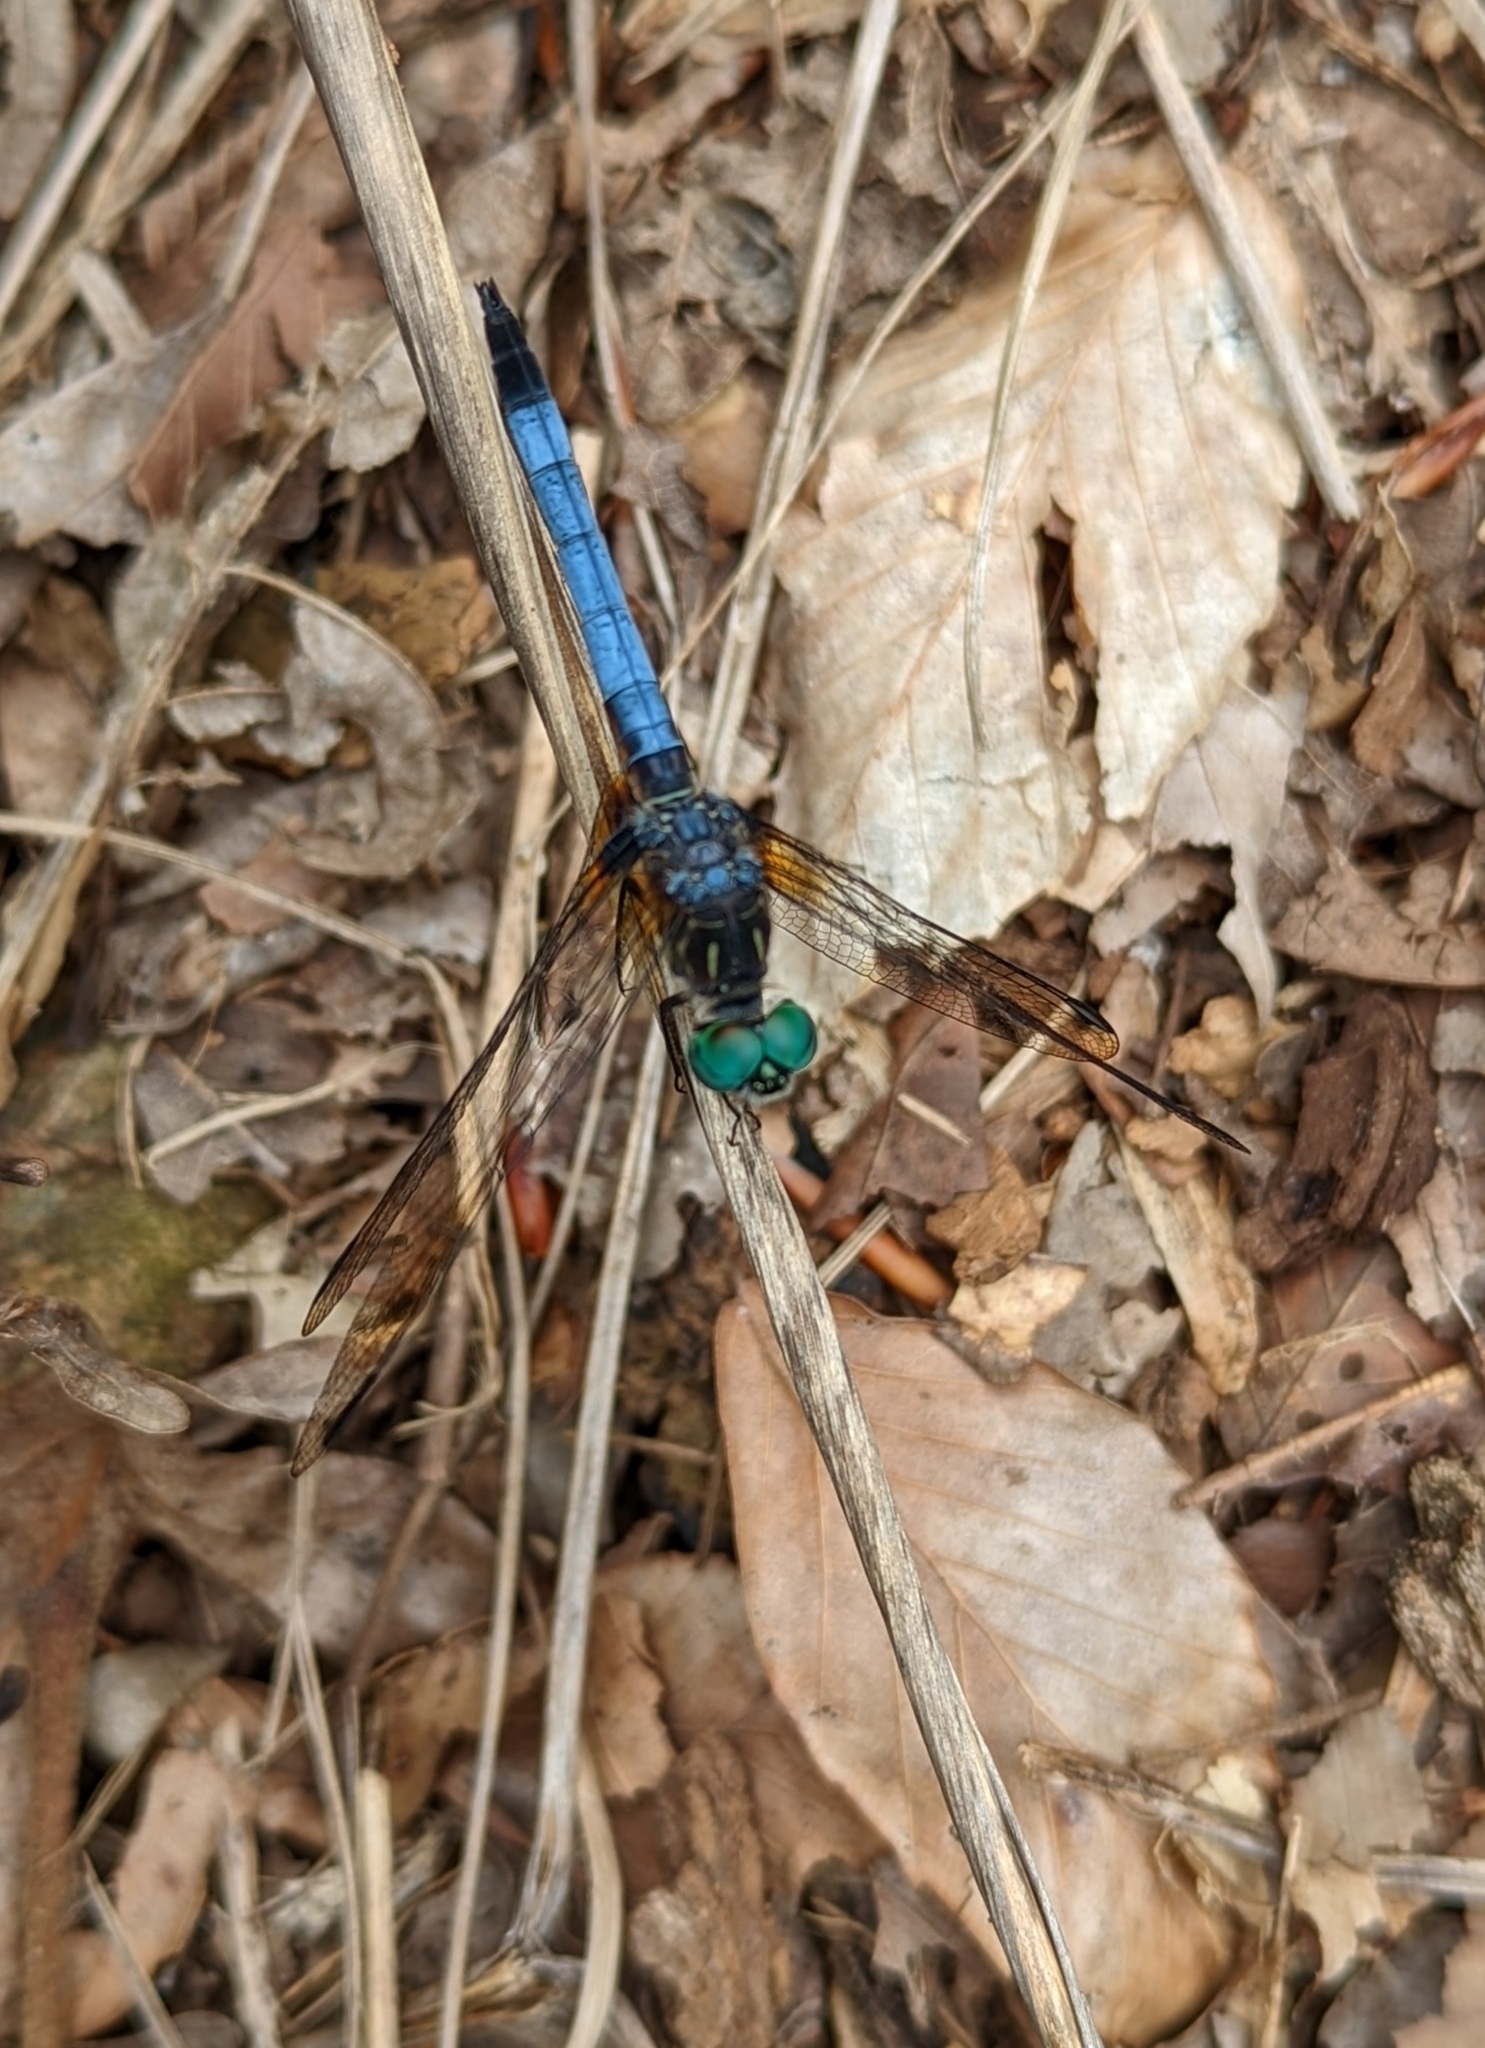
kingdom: Animalia
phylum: Arthropoda
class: Insecta
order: Odonata
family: Libellulidae
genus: Pachydiplax
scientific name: Pachydiplax longipennis
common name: Blue dasher
